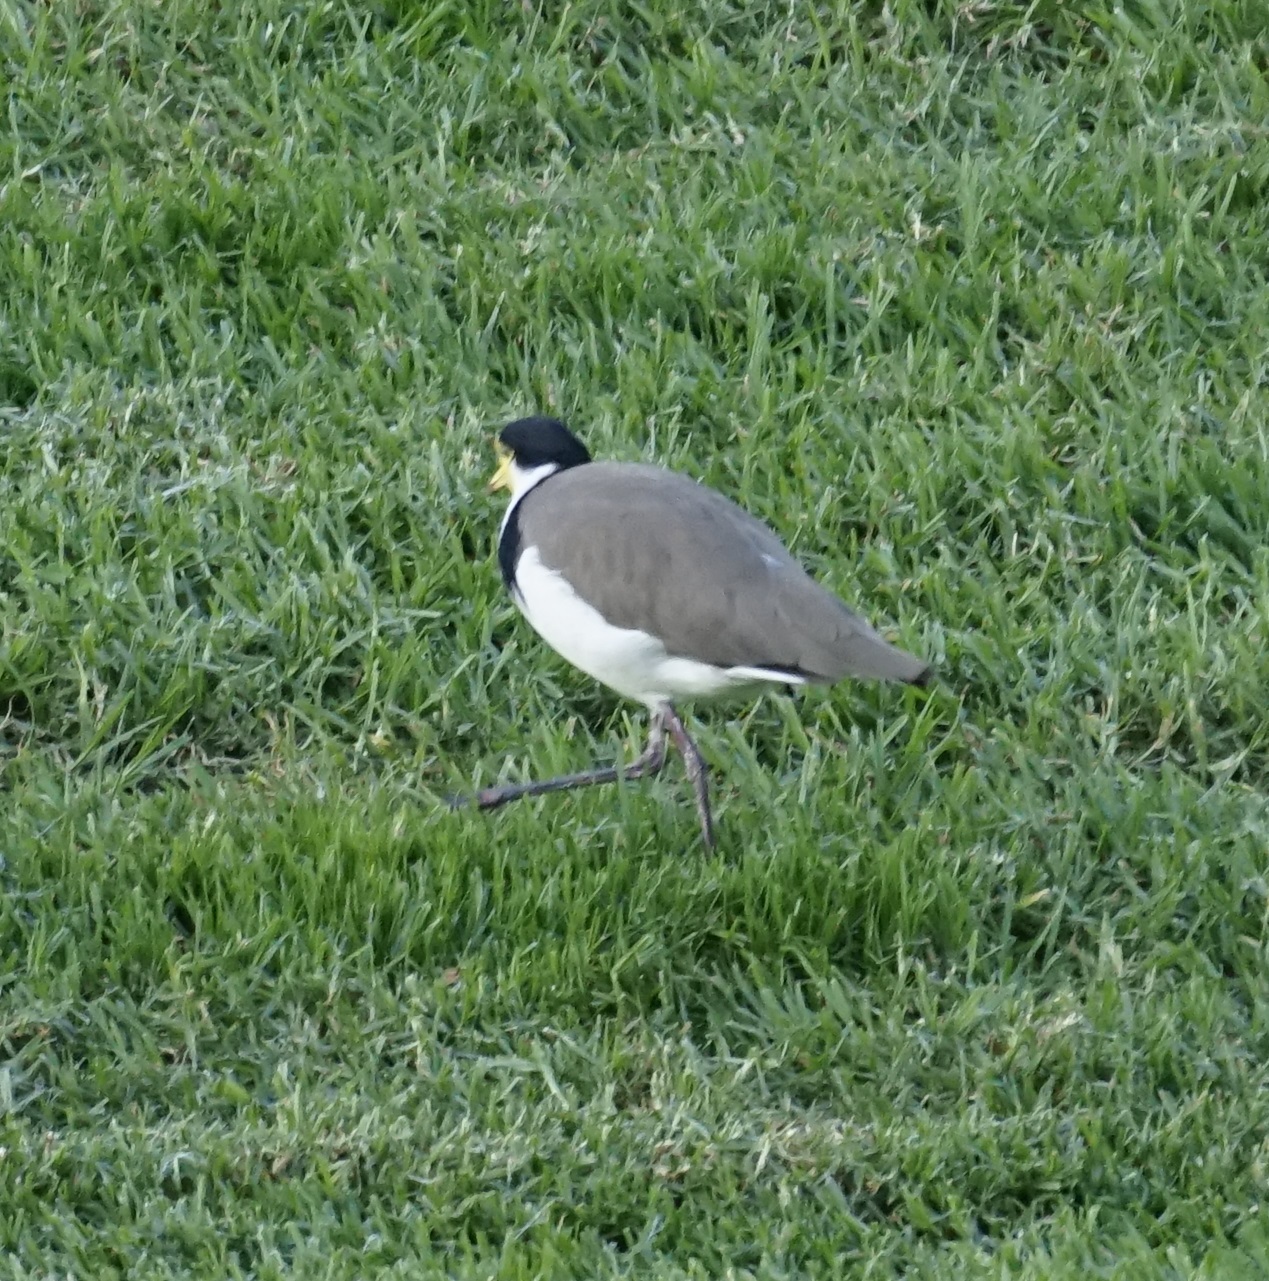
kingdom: Animalia
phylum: Chordata
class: Aves
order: Charadriiformes
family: Charadriidae
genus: Vanellus
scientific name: Vanellus miles
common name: Masked lapwing
